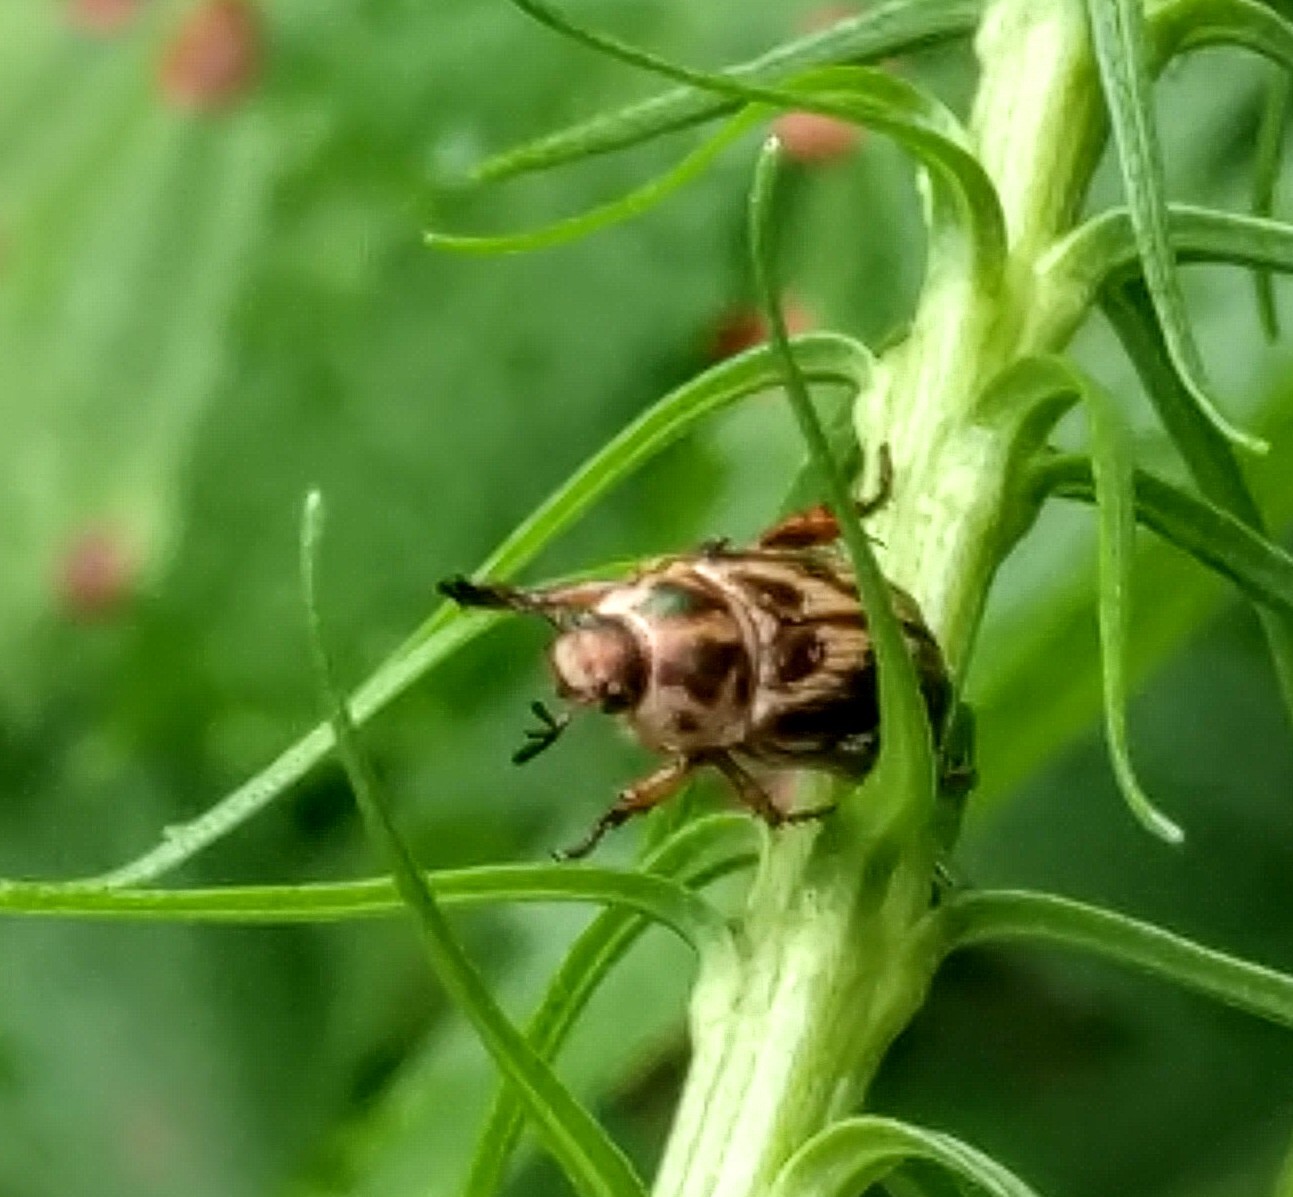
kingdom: Animalia
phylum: Arthropoda
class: Insecta
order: Coleoptera
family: Scarabaeidae
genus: Exomala
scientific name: Exomala orientalis
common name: Oriental beetle
